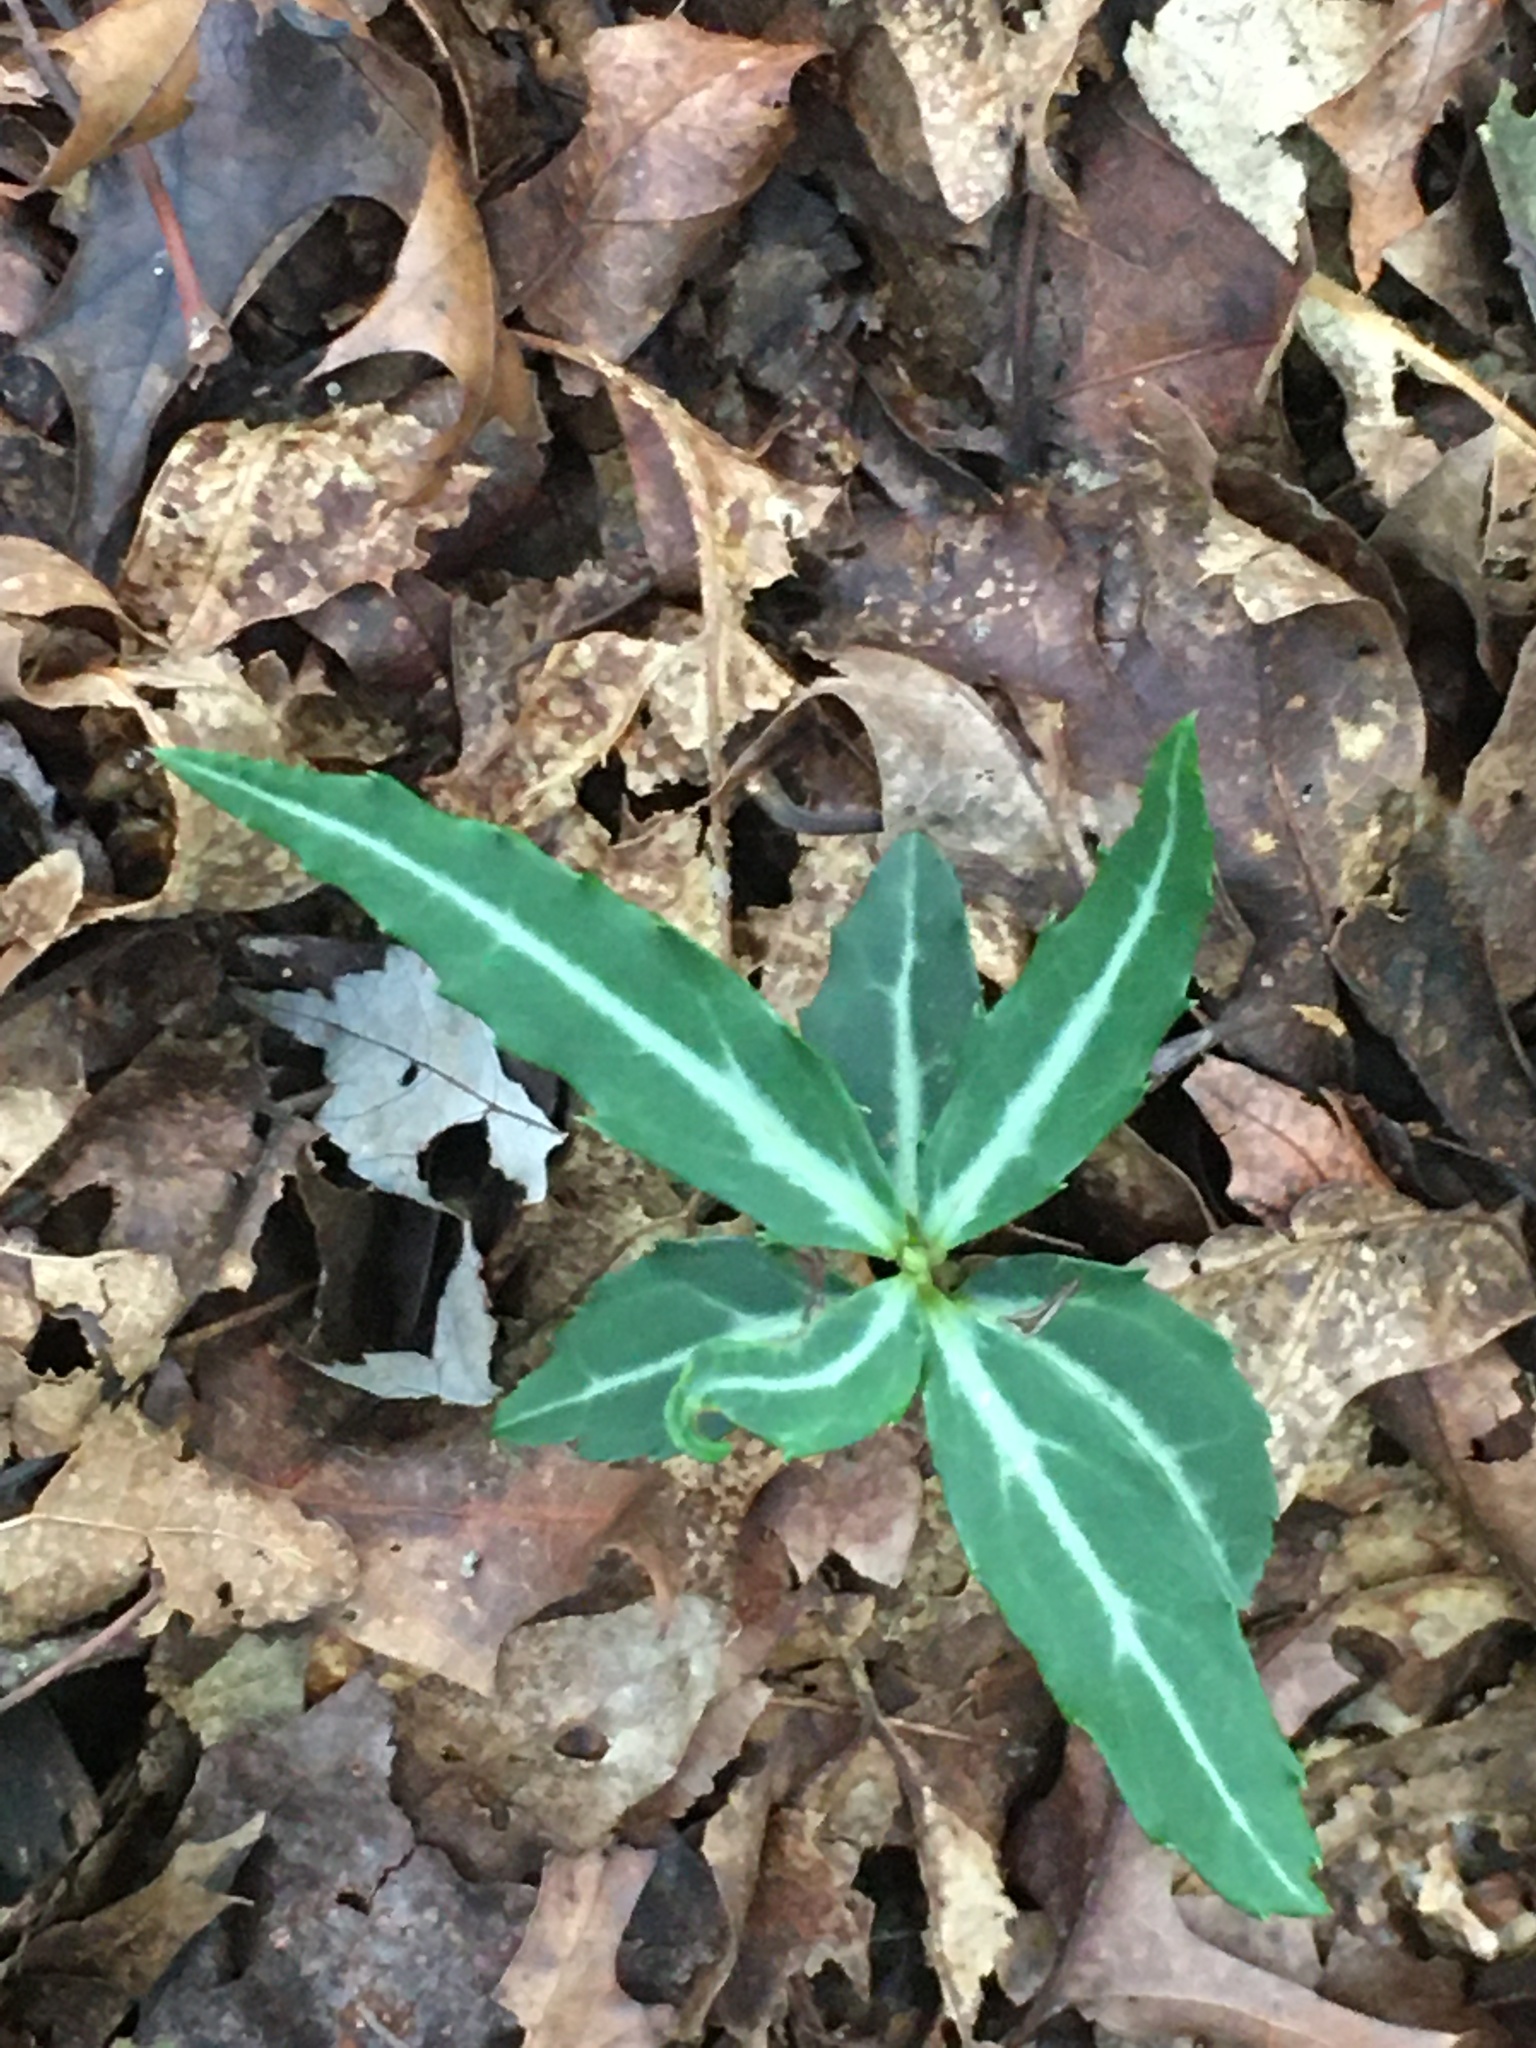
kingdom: Plantae
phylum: Tracheophyta
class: Magnoliopsida
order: Ericales
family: Ericaceae
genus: Chimaphila
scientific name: Chimaphila maculata
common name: Spotted pipsissewa
